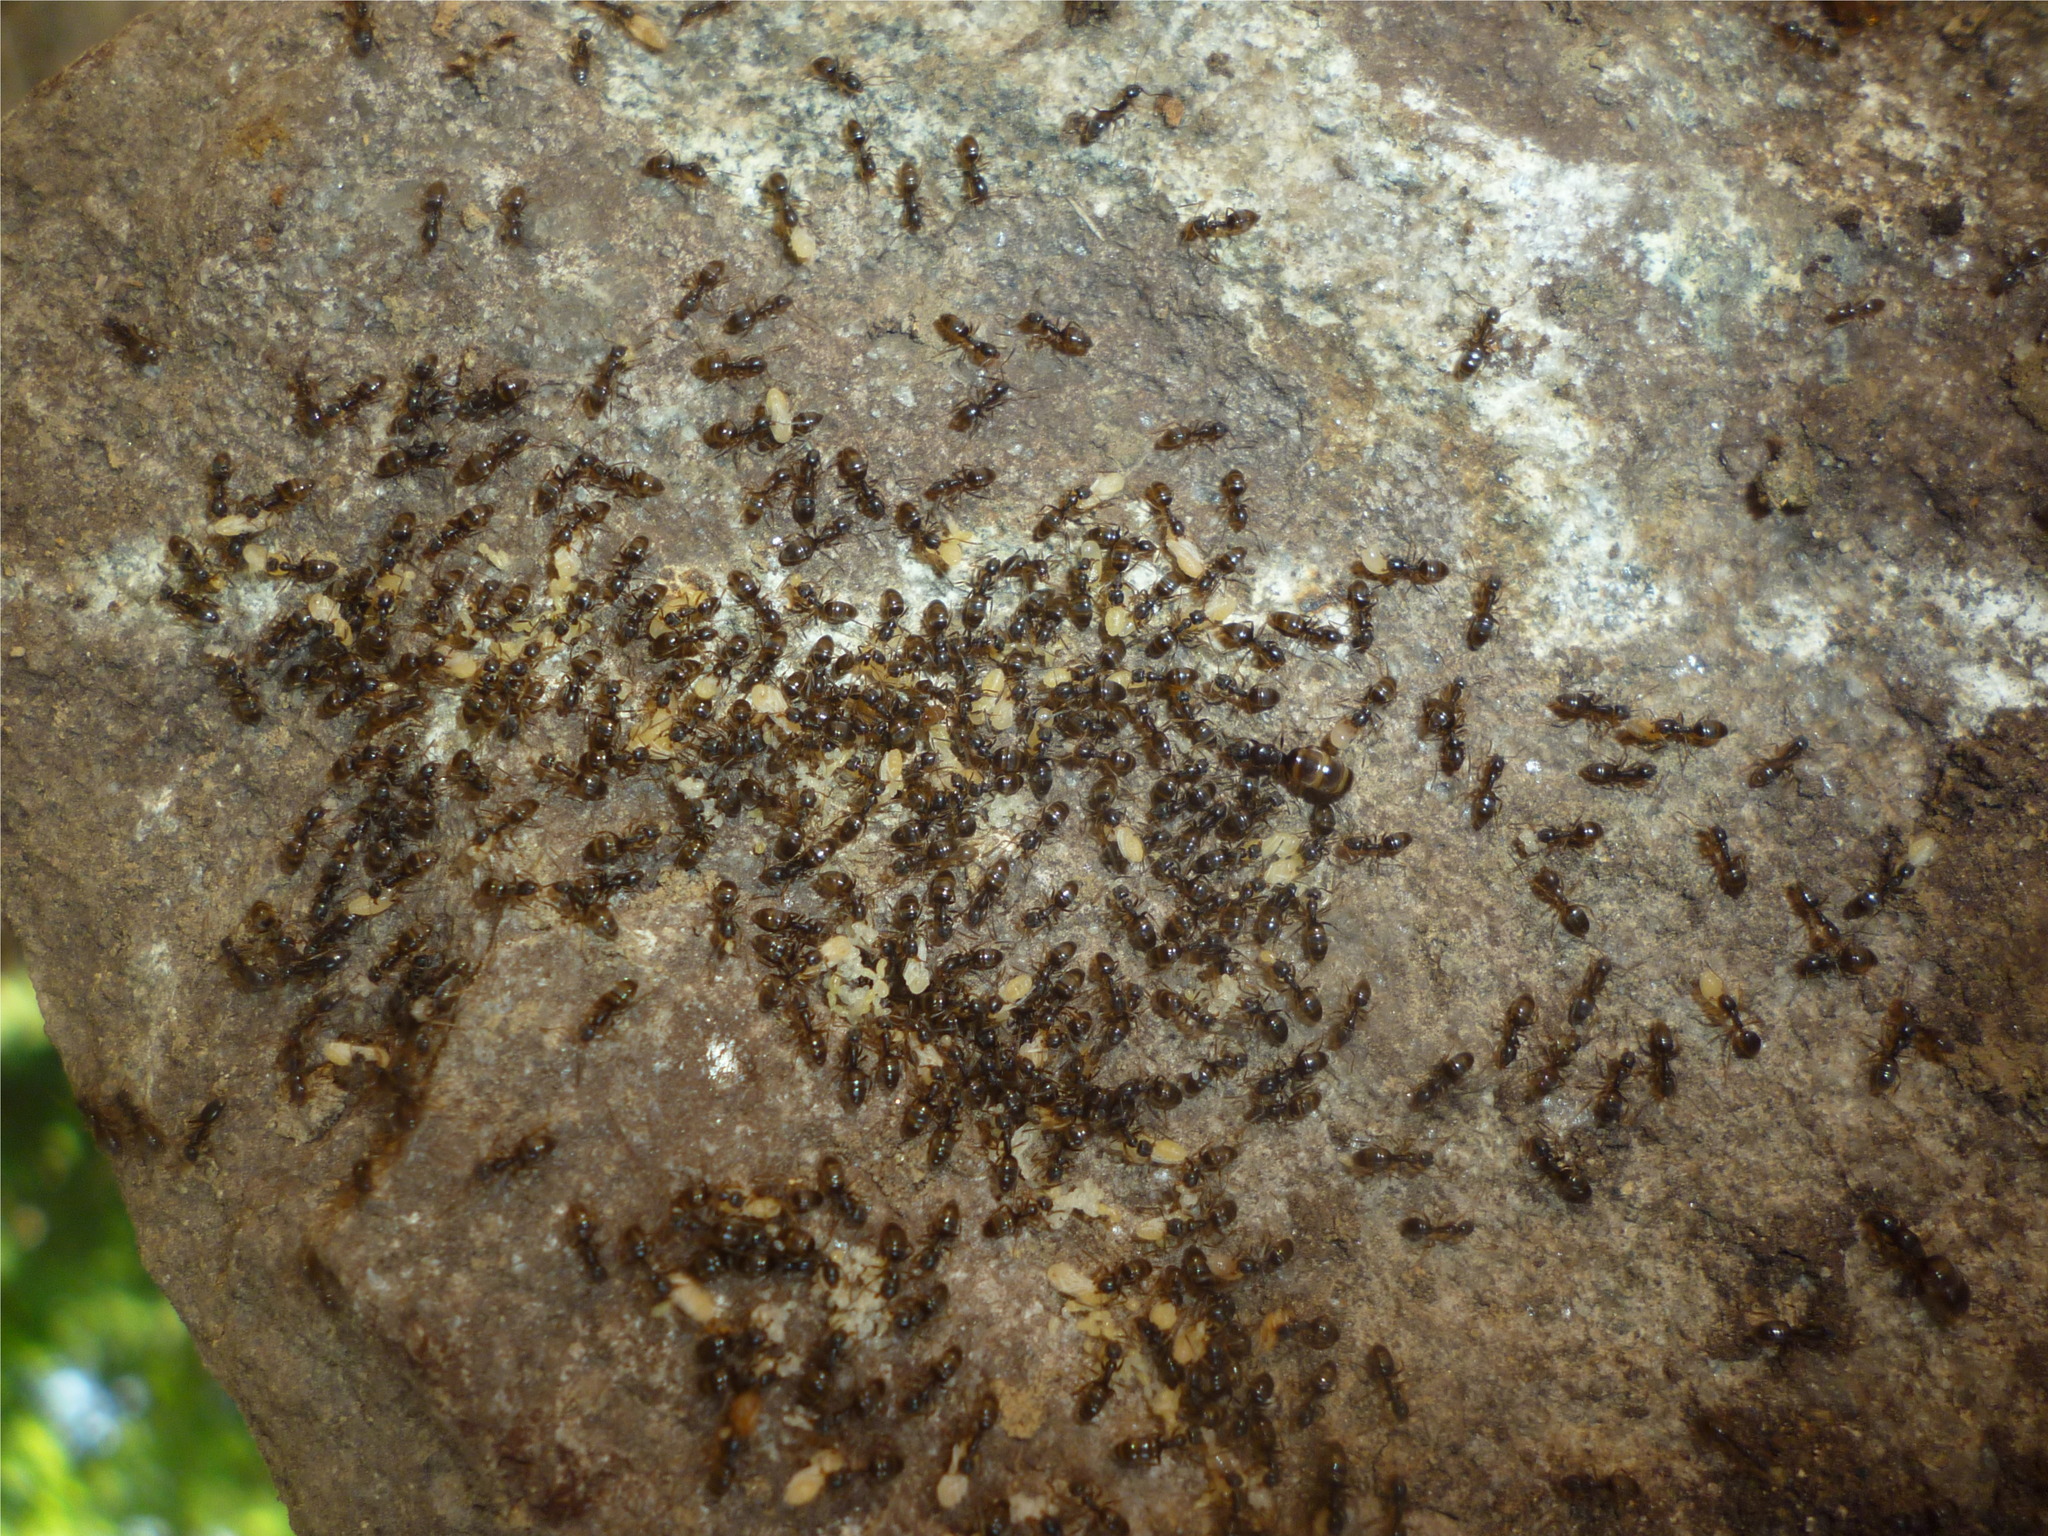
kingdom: Animalia
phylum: Arthropoda
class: Insecta
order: Hymenoptera
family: Formicidae
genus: Tapinoma
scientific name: Tapinoma sessile
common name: Odorous house ant
